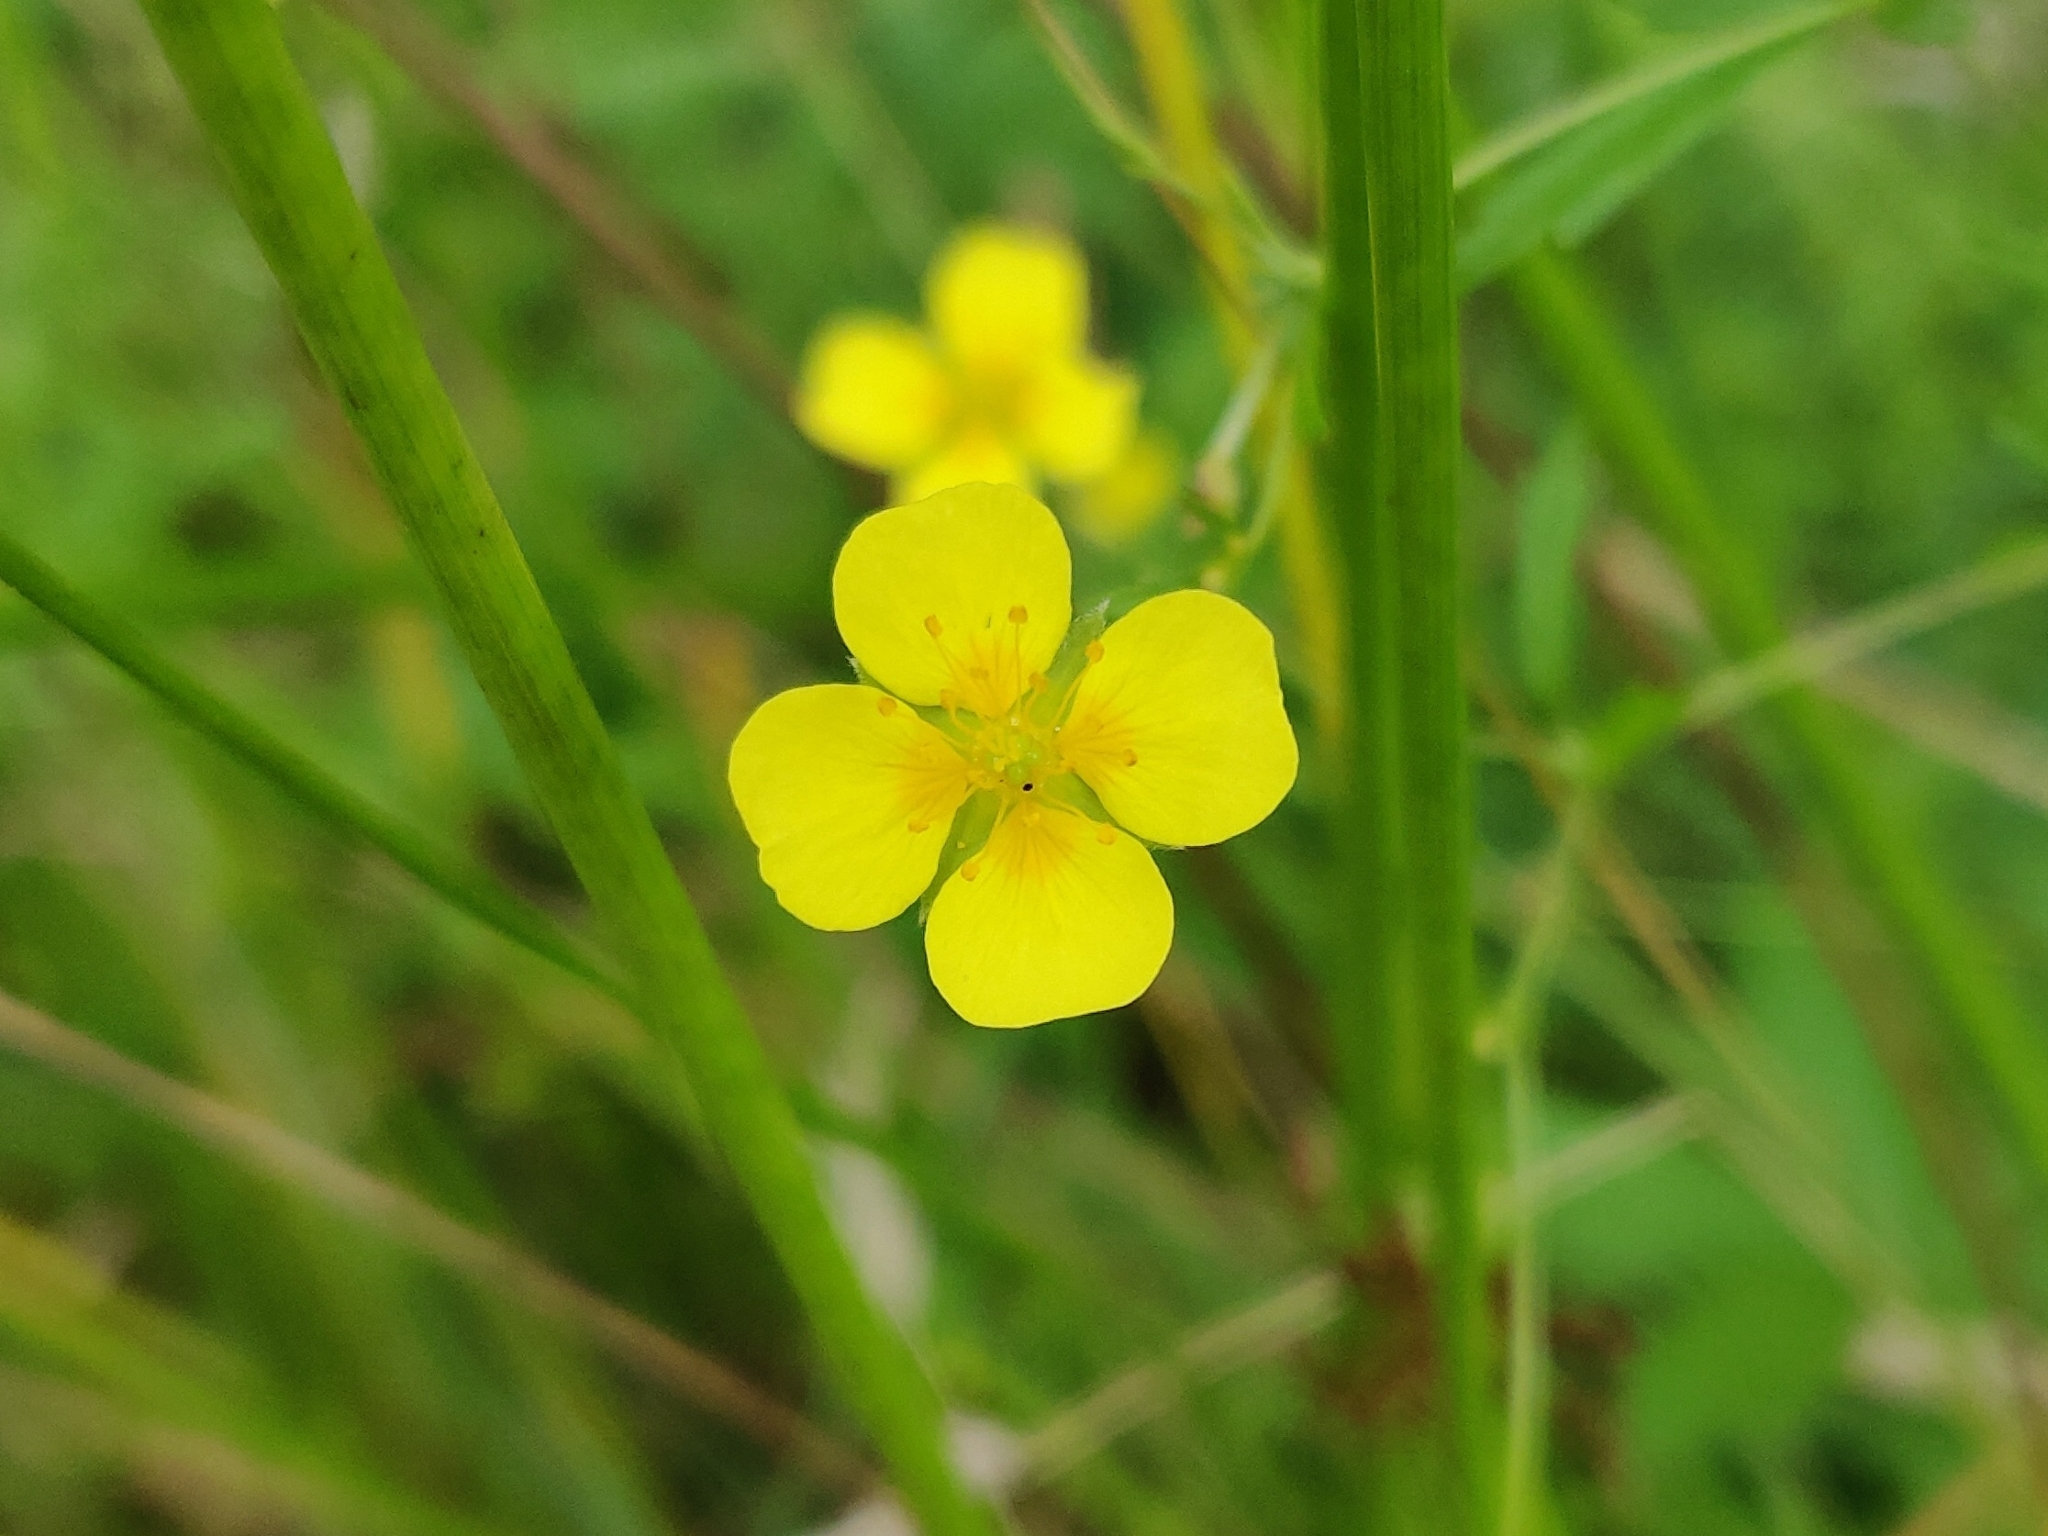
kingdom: Plantae
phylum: Tracheophyta
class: Magnoliopsida
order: Rosales
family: Rosaceae
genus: Potentilla
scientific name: Potentilla erecta
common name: Tormentil
